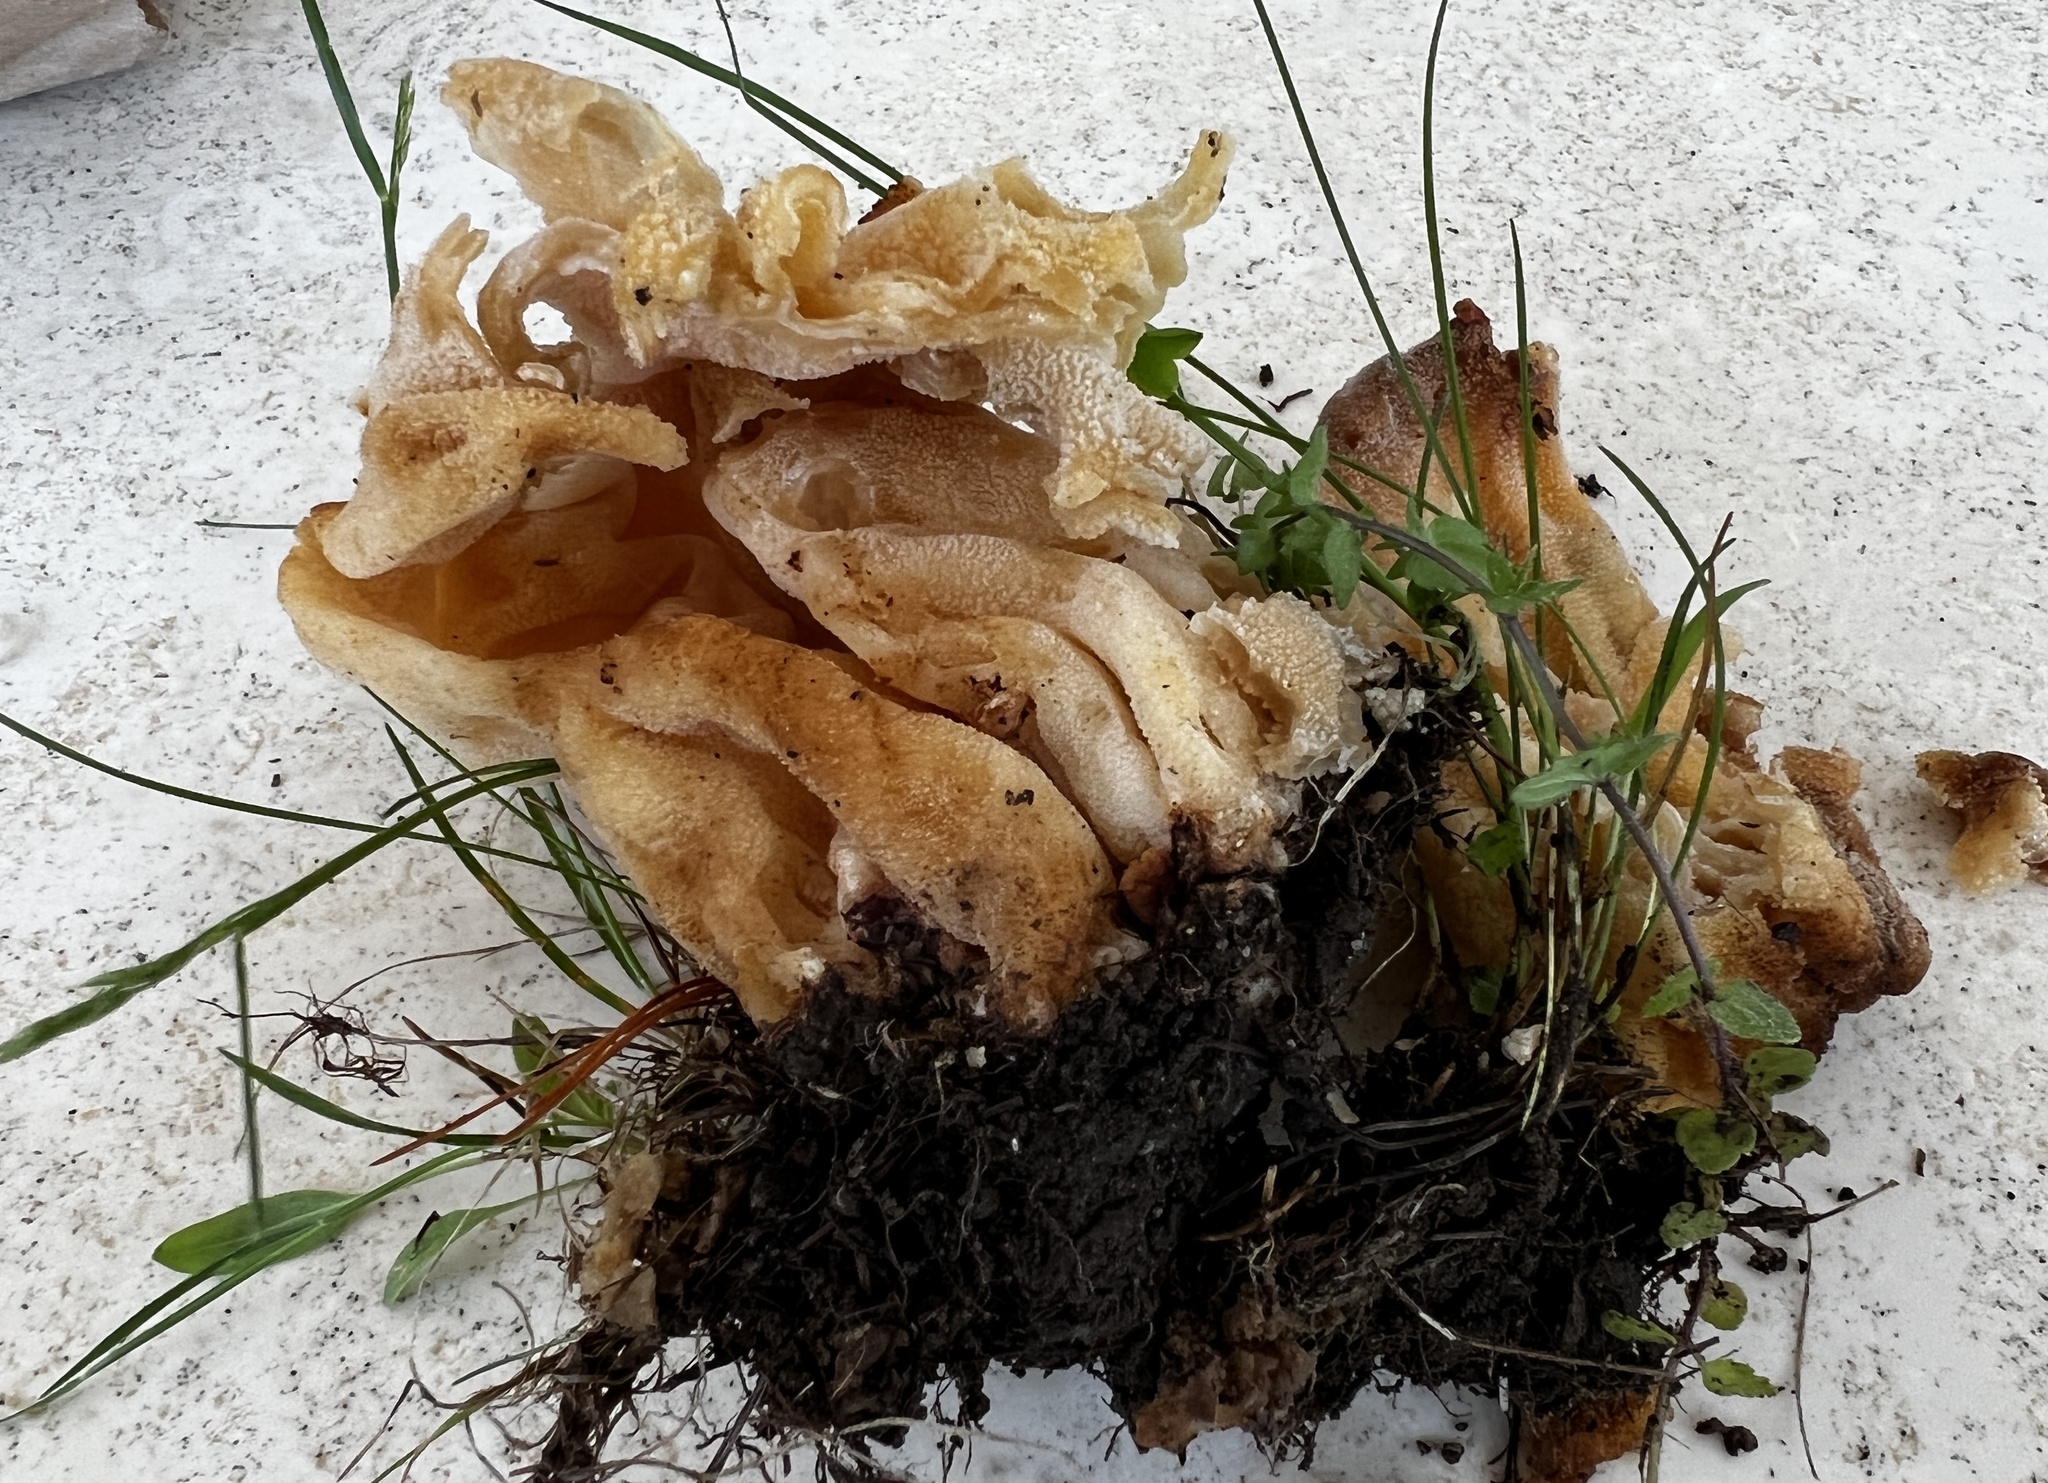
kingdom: Fungi
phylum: Ascomycota
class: Pezizomycetes
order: Pezizales
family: Morchellaceae
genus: Morchella
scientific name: Morchella americana
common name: White morel
